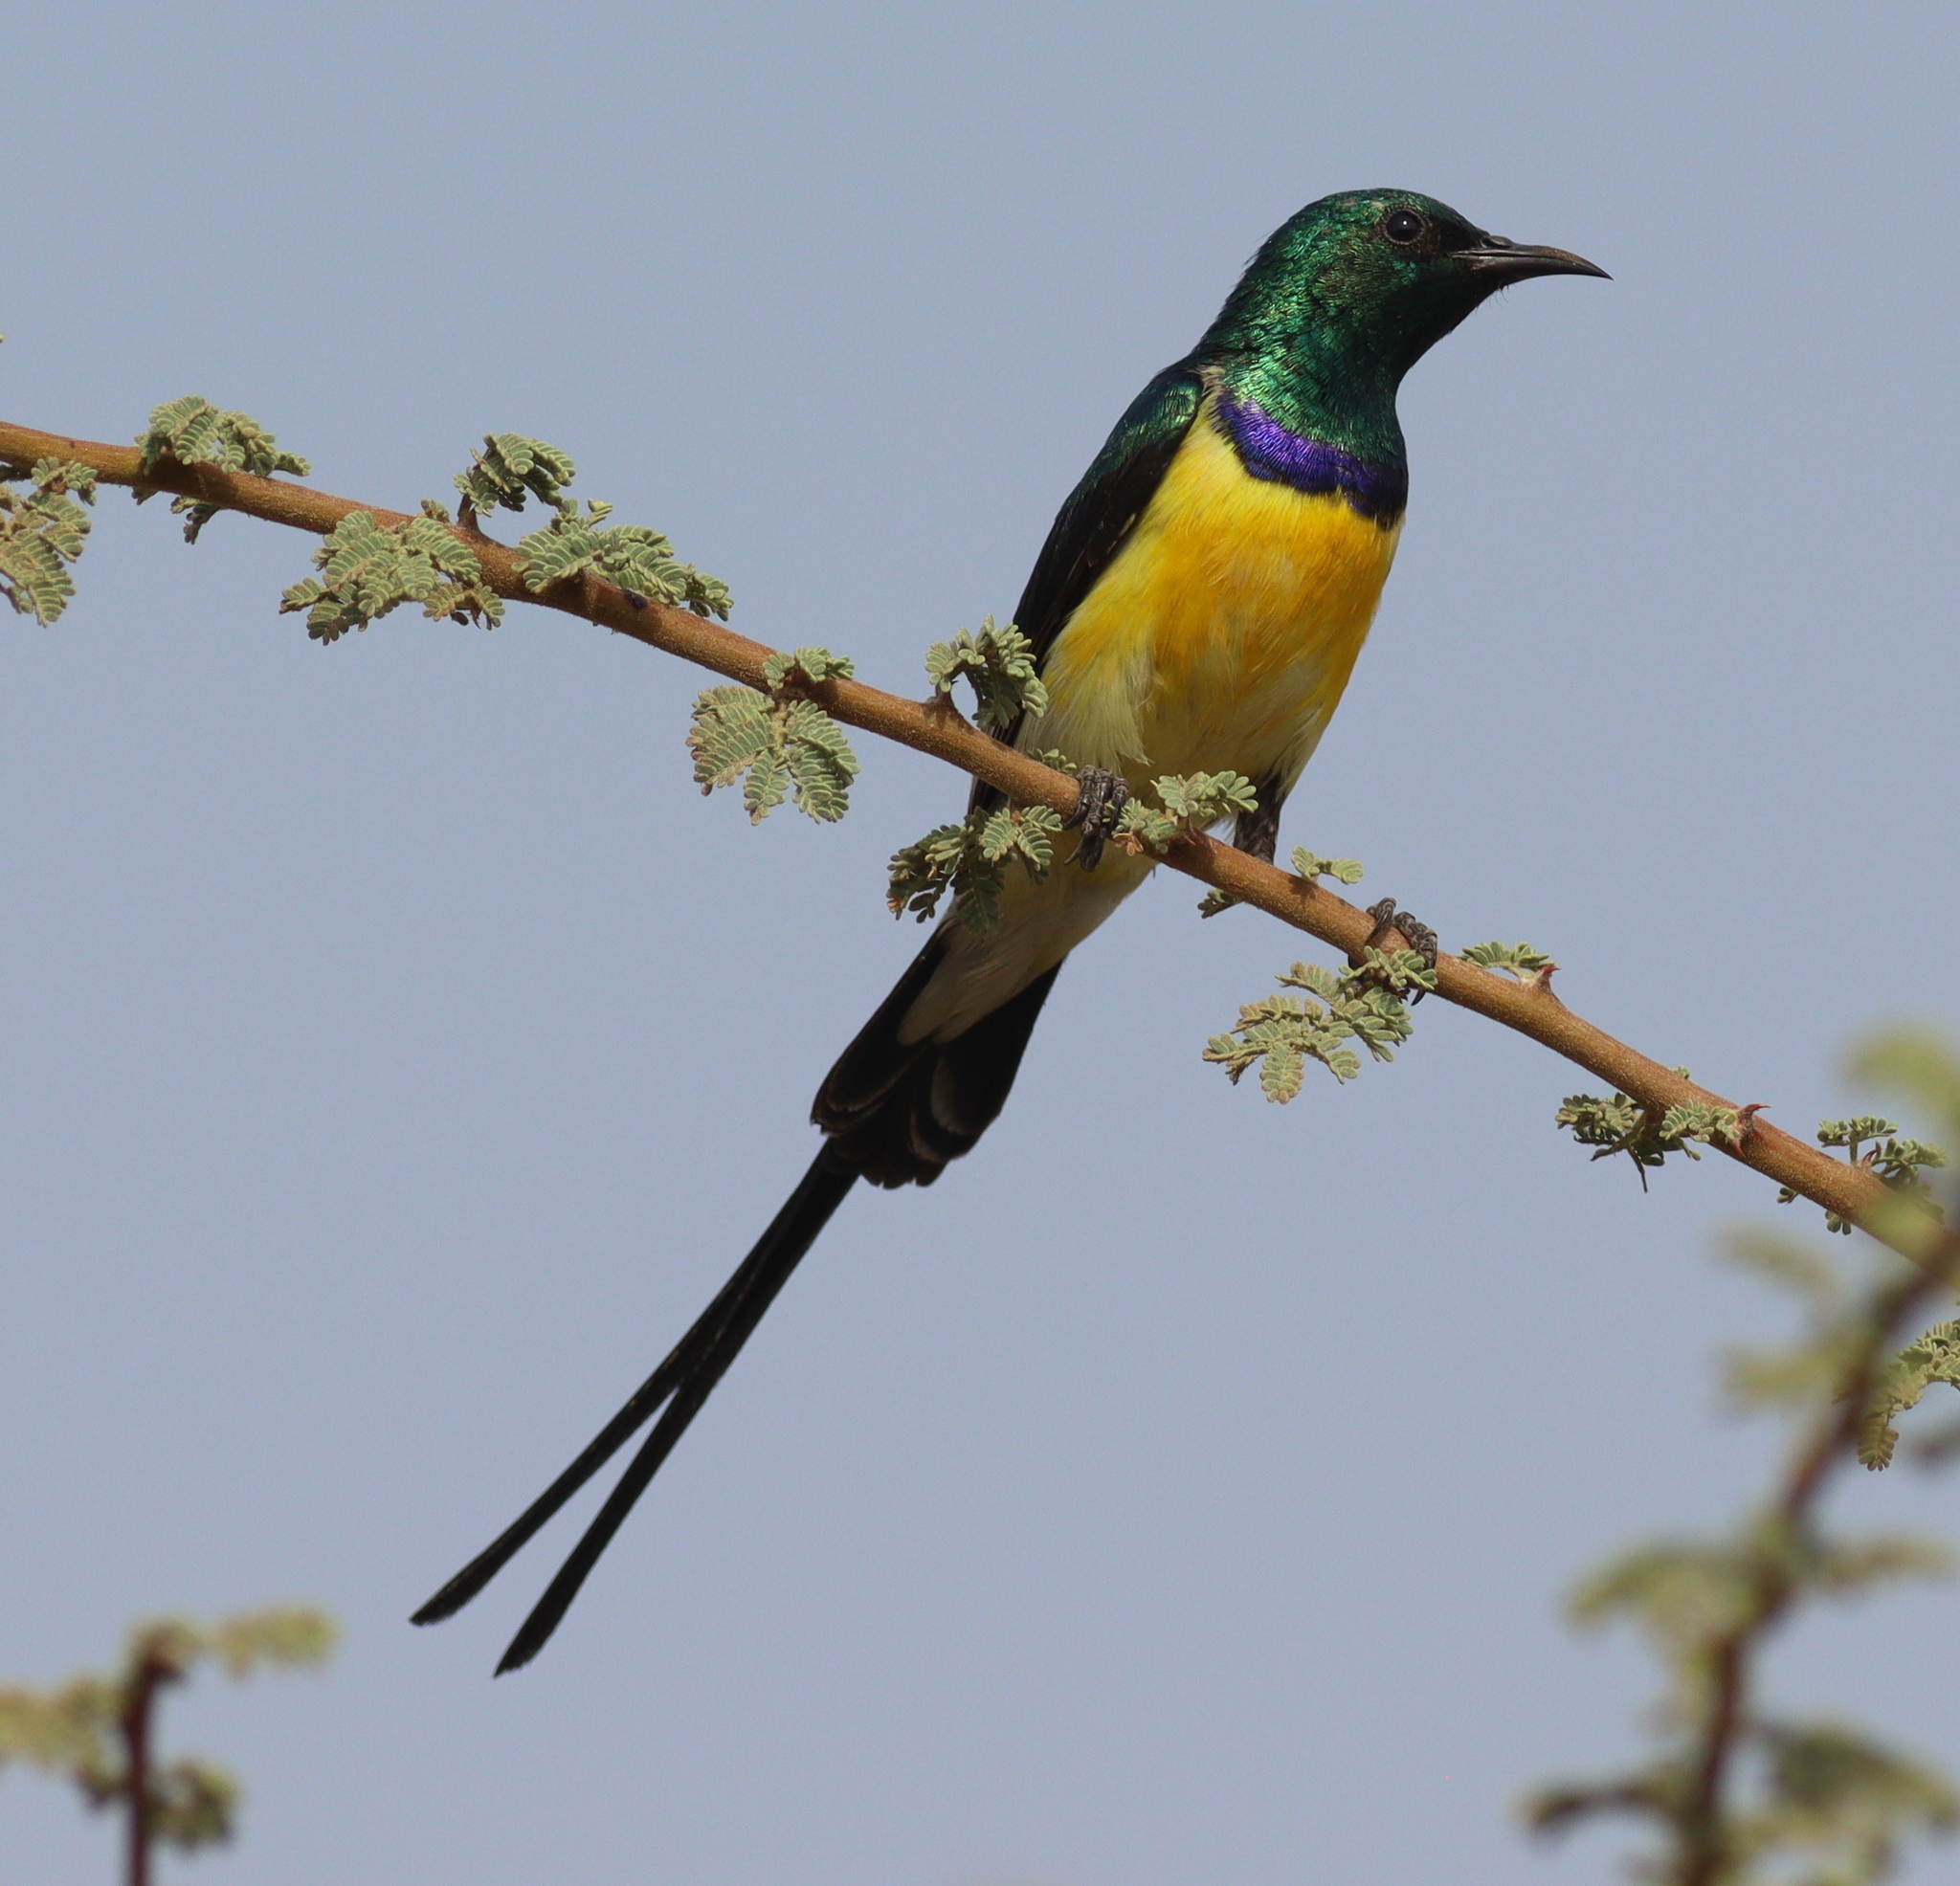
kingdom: Animalia
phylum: Chordata
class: Aves
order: Passeriformes
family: Nectariniidae
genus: Hedydipna
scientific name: Hedydipna metallica
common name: Nile valley sunbird
